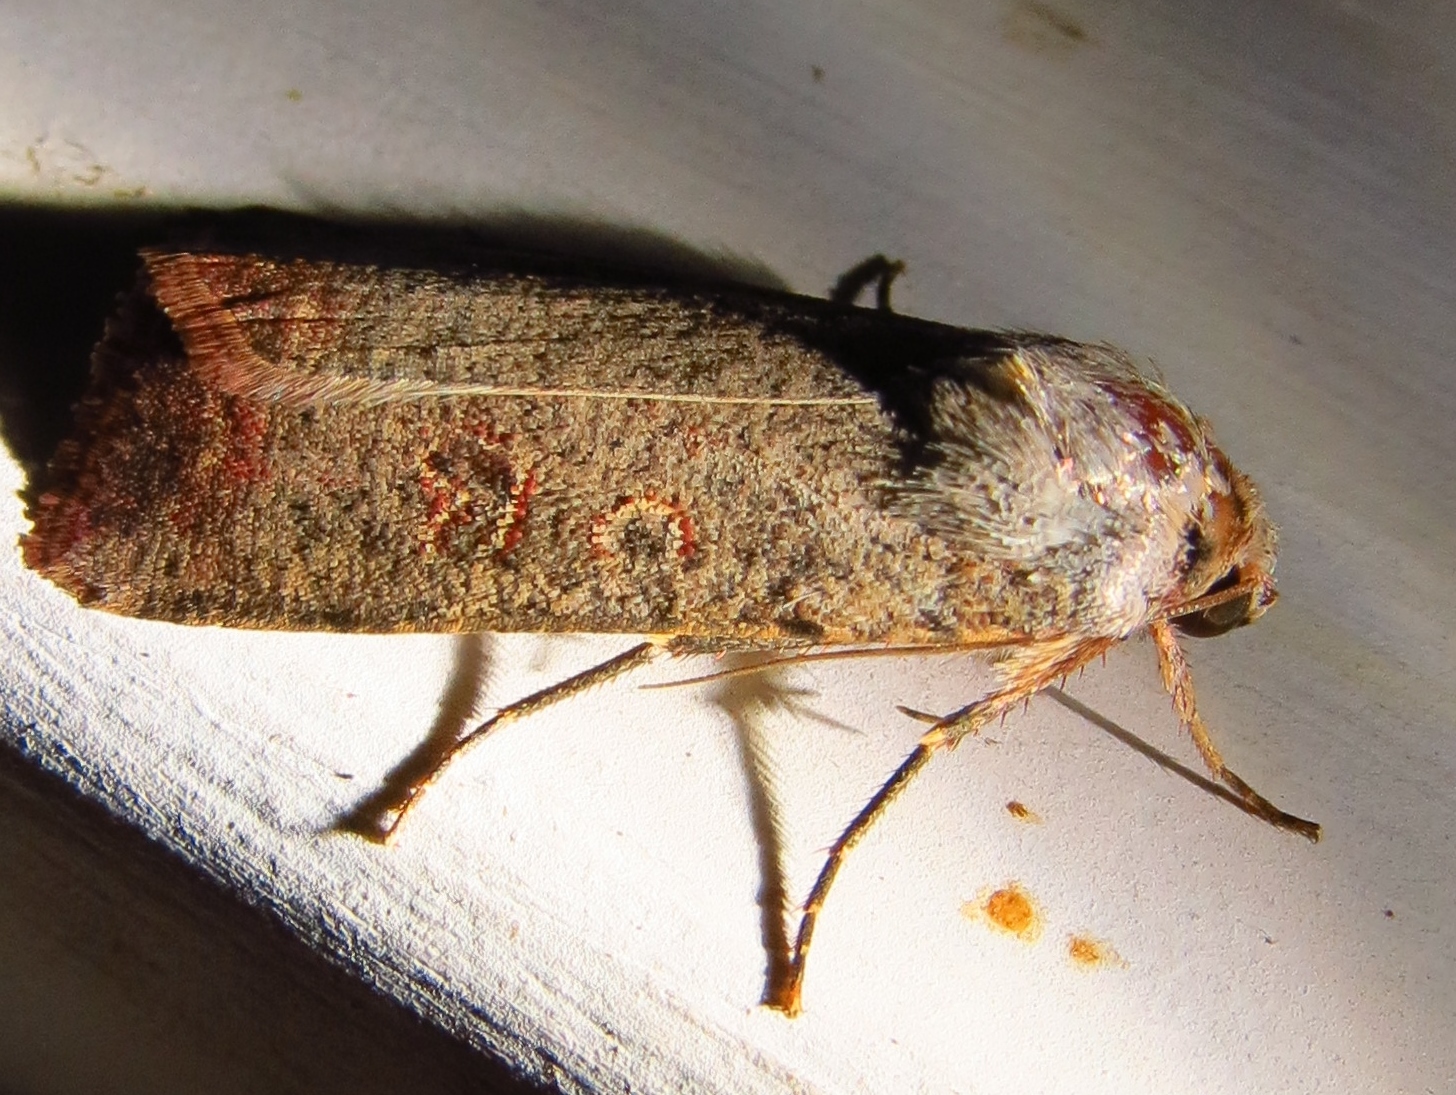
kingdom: Animalia
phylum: Arthropoda
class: Insecta
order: Lepidoptera
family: Noctuidae
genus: Anicla
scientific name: Anicla infecta
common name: Green cutworm
